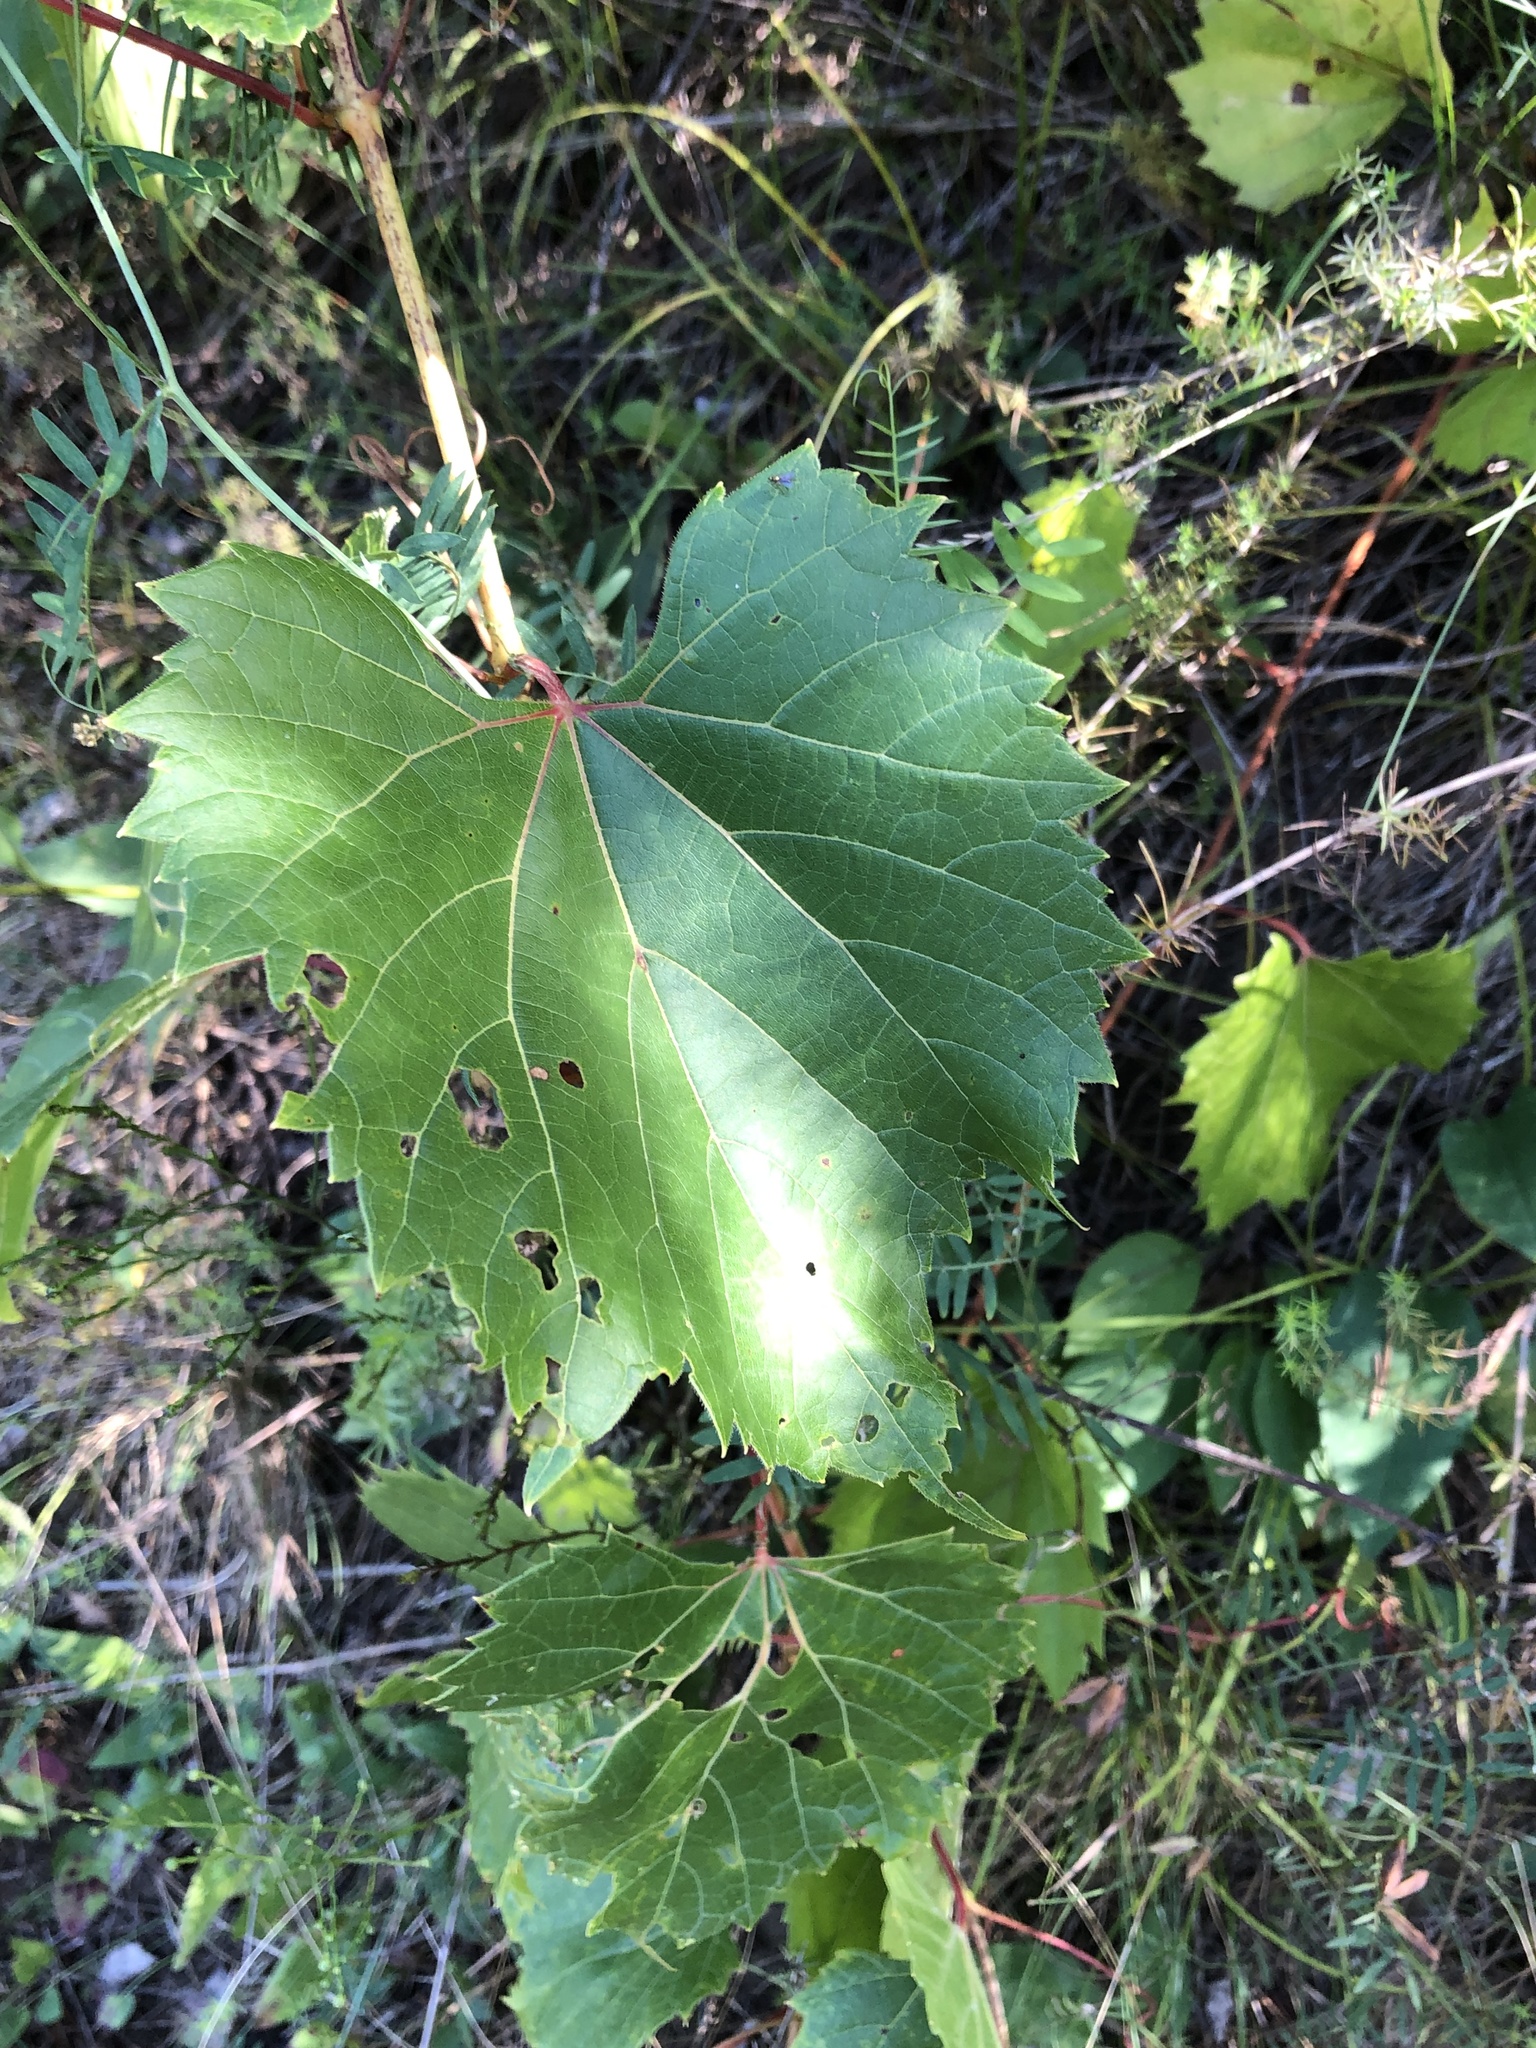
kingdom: Plantae
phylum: Tracheophyta
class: Magnoliopsida
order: Vitales
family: Vitaceae
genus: Vitis
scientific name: Vitis riparia
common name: Frost grape
